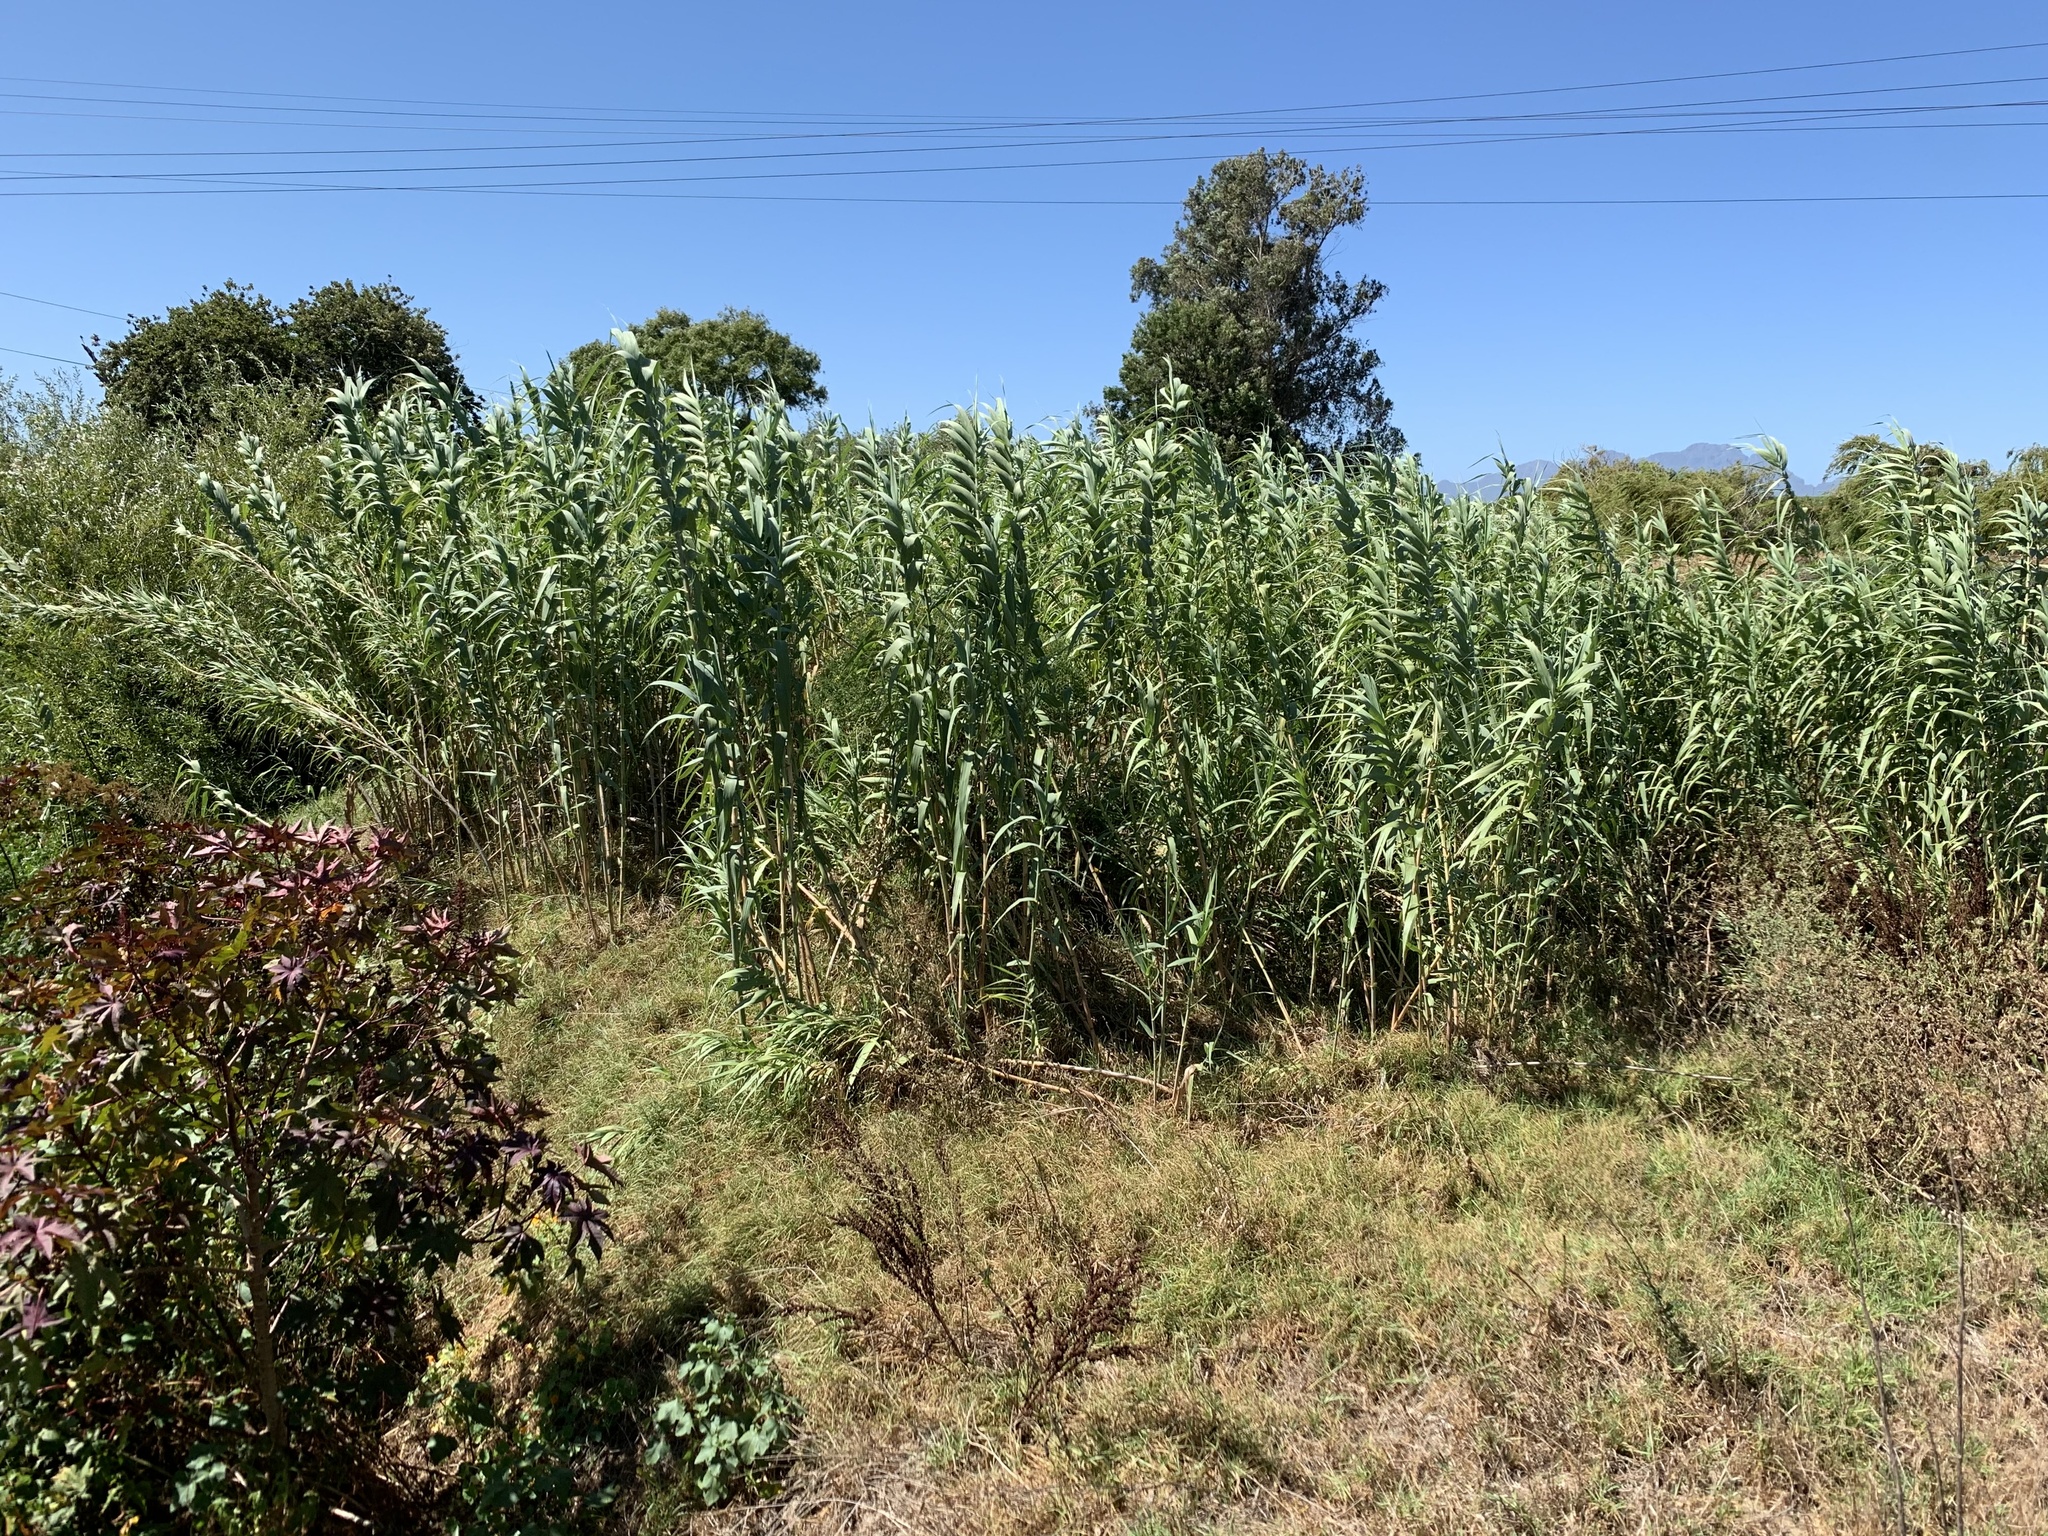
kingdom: Plantae
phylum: Tracheophyta
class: Liliopsida
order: Poales
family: Poaceae
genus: Arundo
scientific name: Arundo donax
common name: Giant reed
